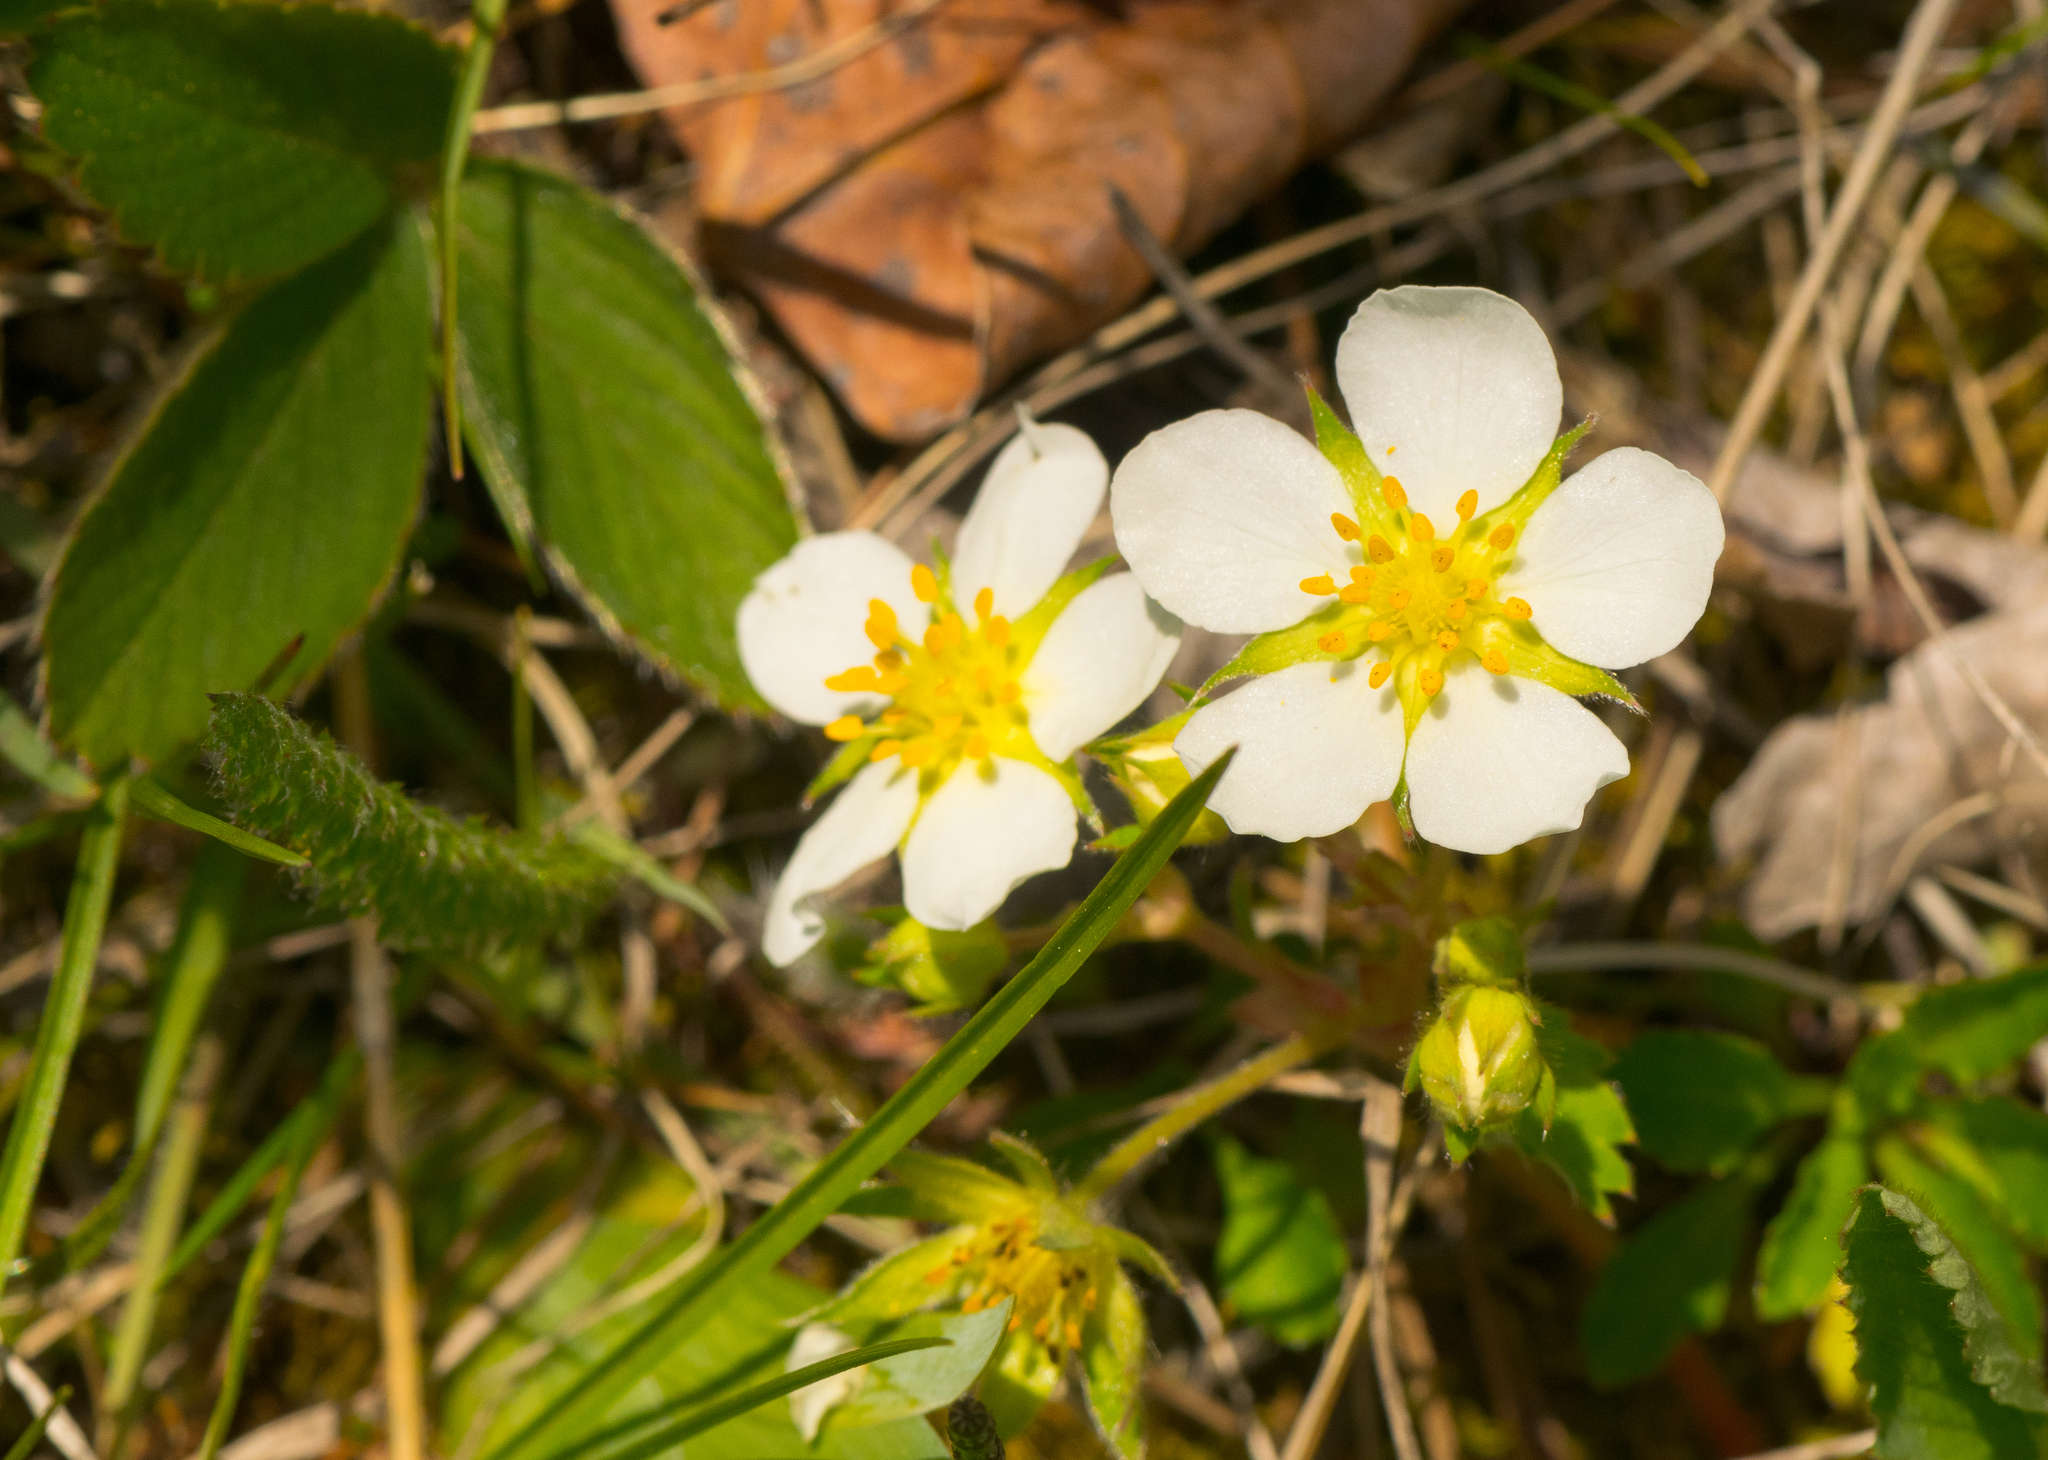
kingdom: Plantae
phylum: Tracheophyta
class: Magnoliopsida
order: Rosales
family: Rosaceae
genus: Fragaria
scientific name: Fragaria virginiana
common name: Thickleaved wild strawberry
